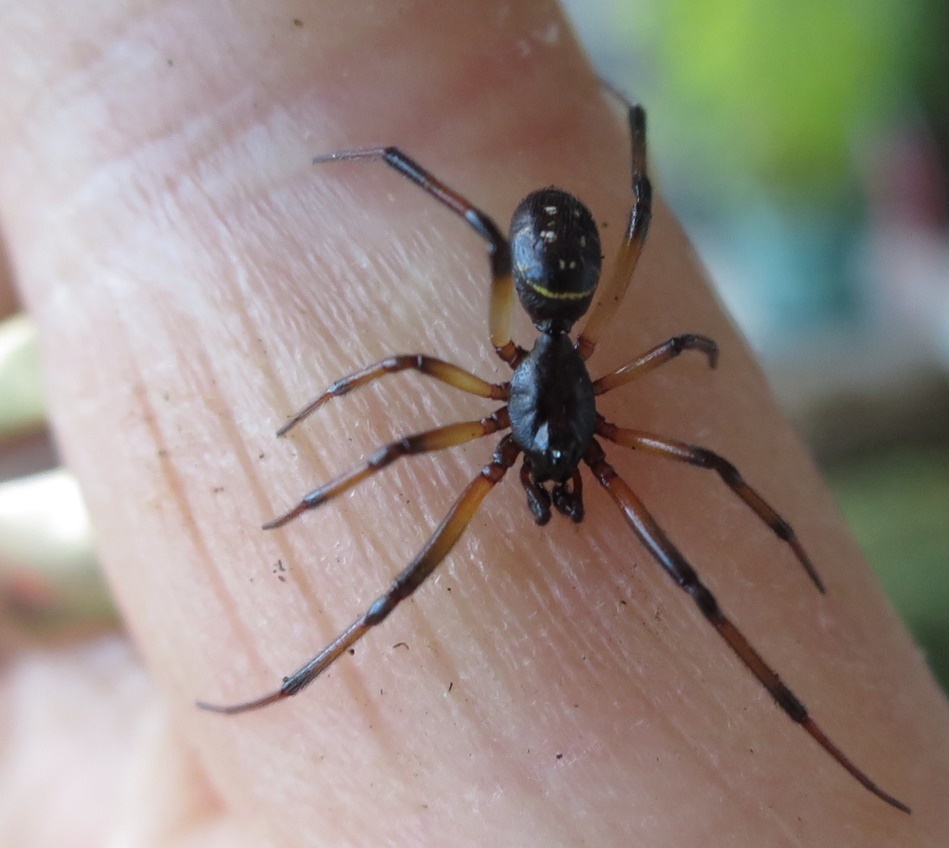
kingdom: Animalia
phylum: Arthropoda
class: Arachnida
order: Araneae
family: Theridiidae
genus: Steatoda
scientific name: Steatoda capensis
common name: Cobweb weaver
